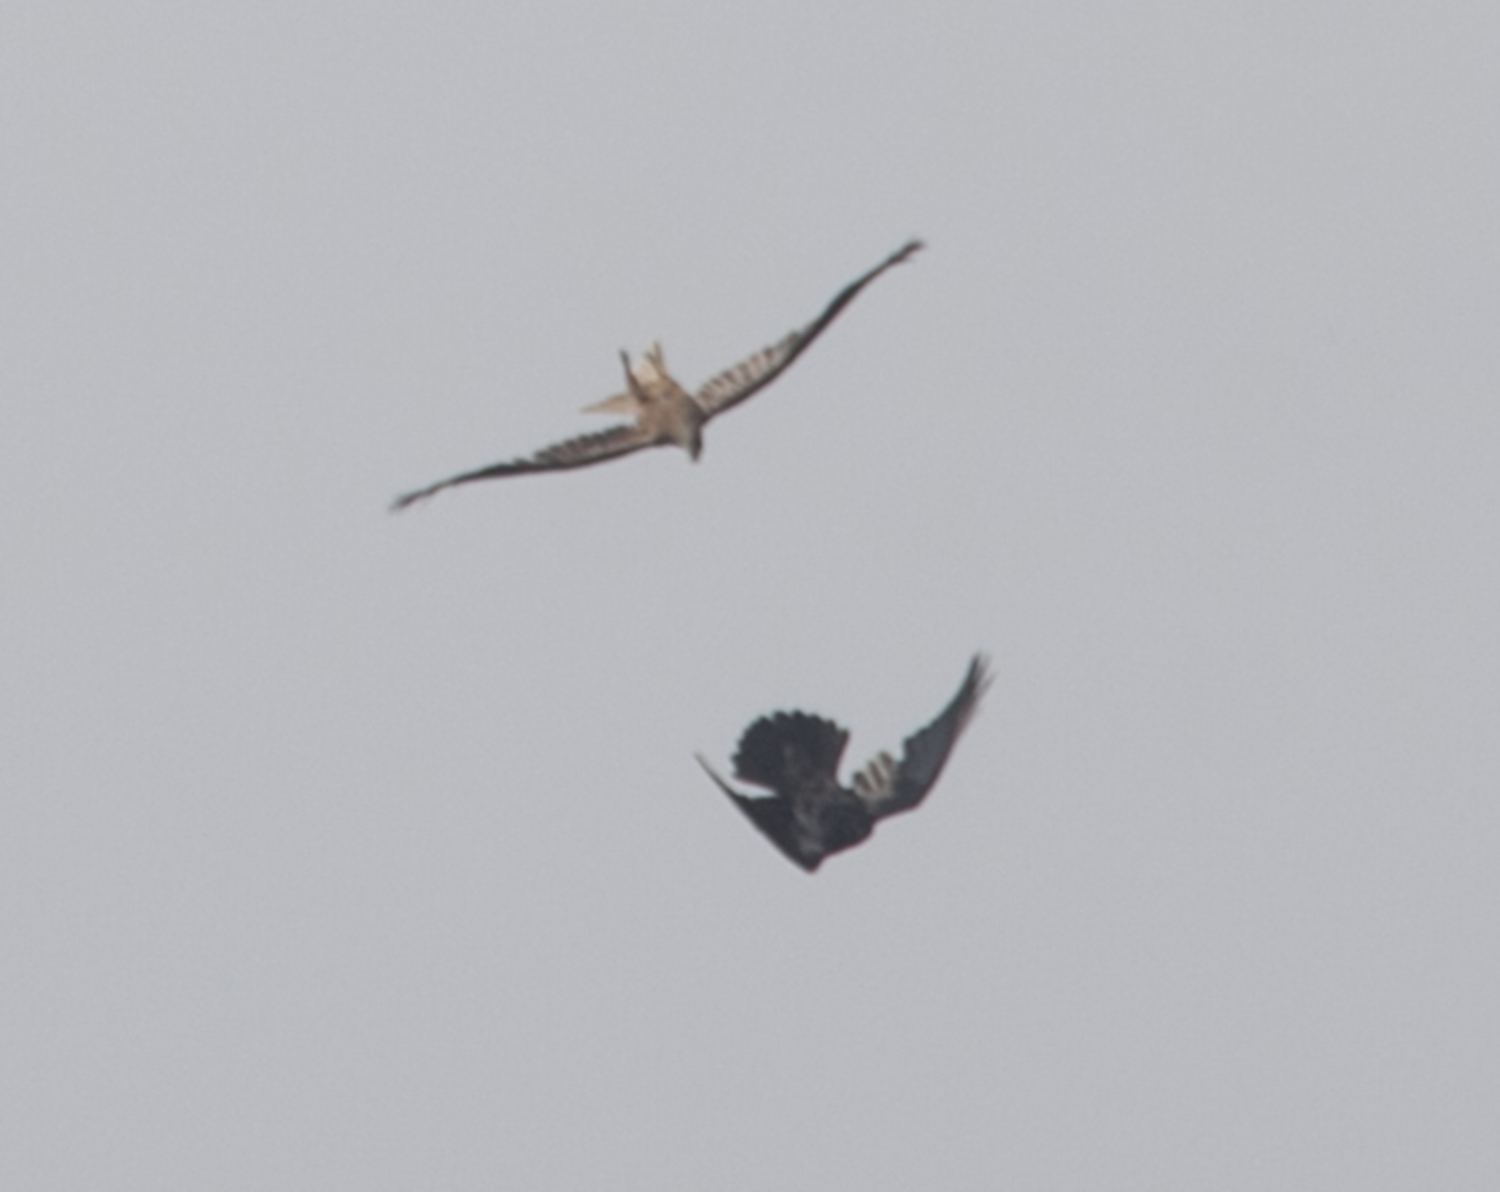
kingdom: Animalia
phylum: Chordata
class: Aves
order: Accipitriformes
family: Accipitridae
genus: Milvus
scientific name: Milvus migrans
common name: Black kite
